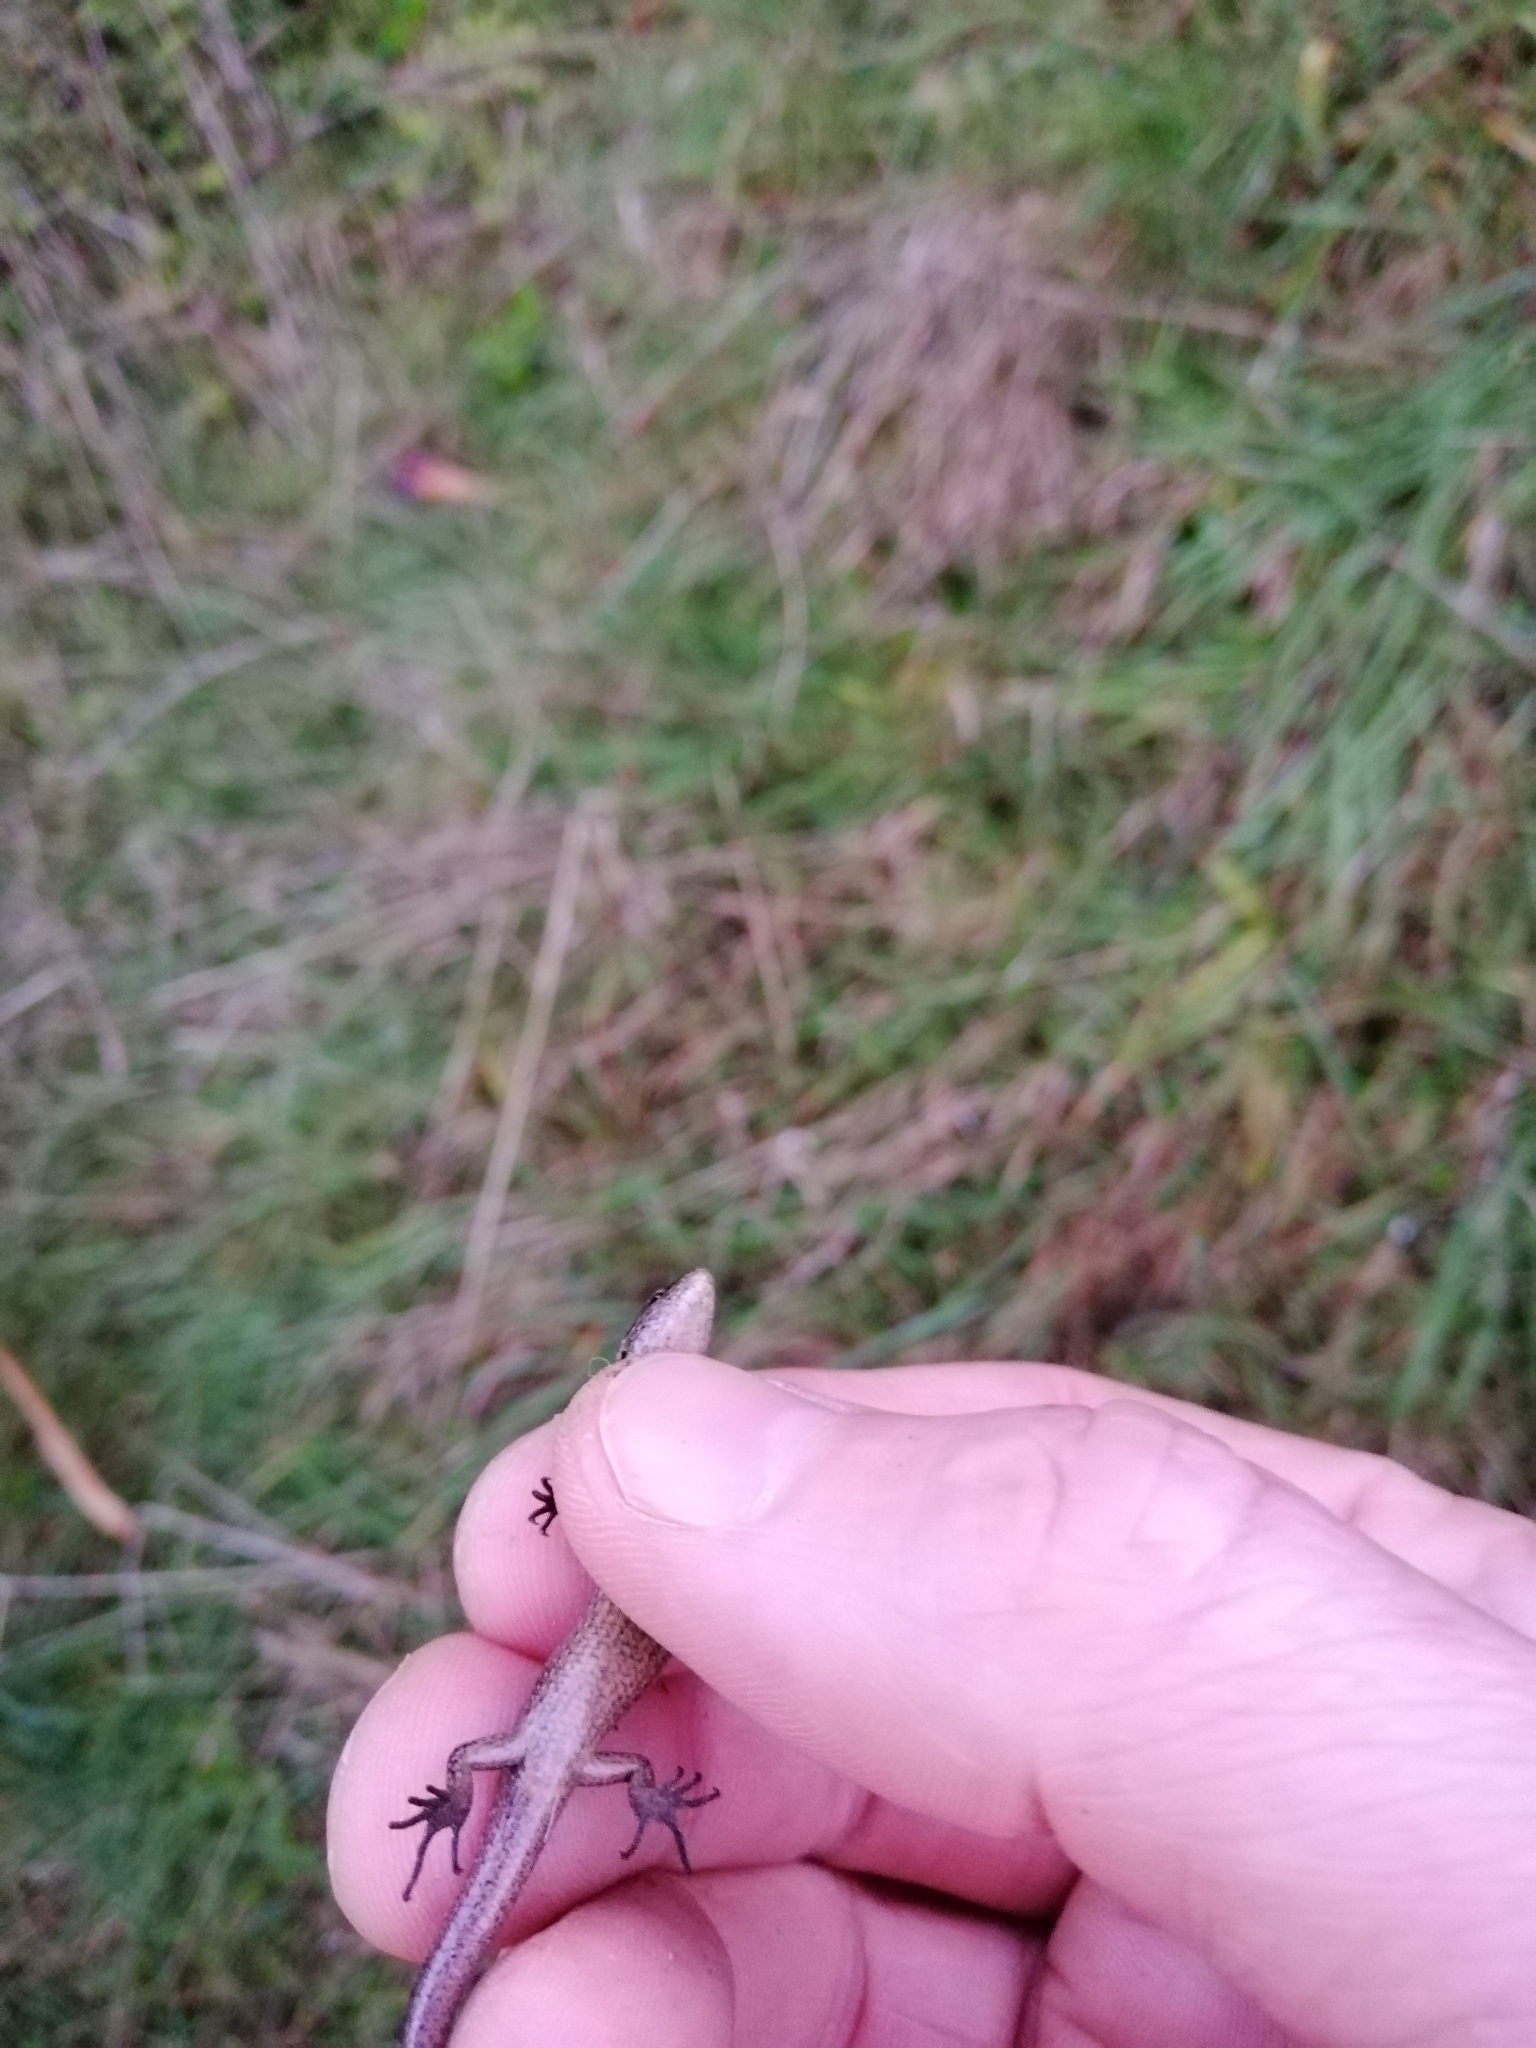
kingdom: Animalia
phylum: Chordata
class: Squamata
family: Scincidae
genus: Oligosoma
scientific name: Oligosoma polychroma
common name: Common new zealand skink
